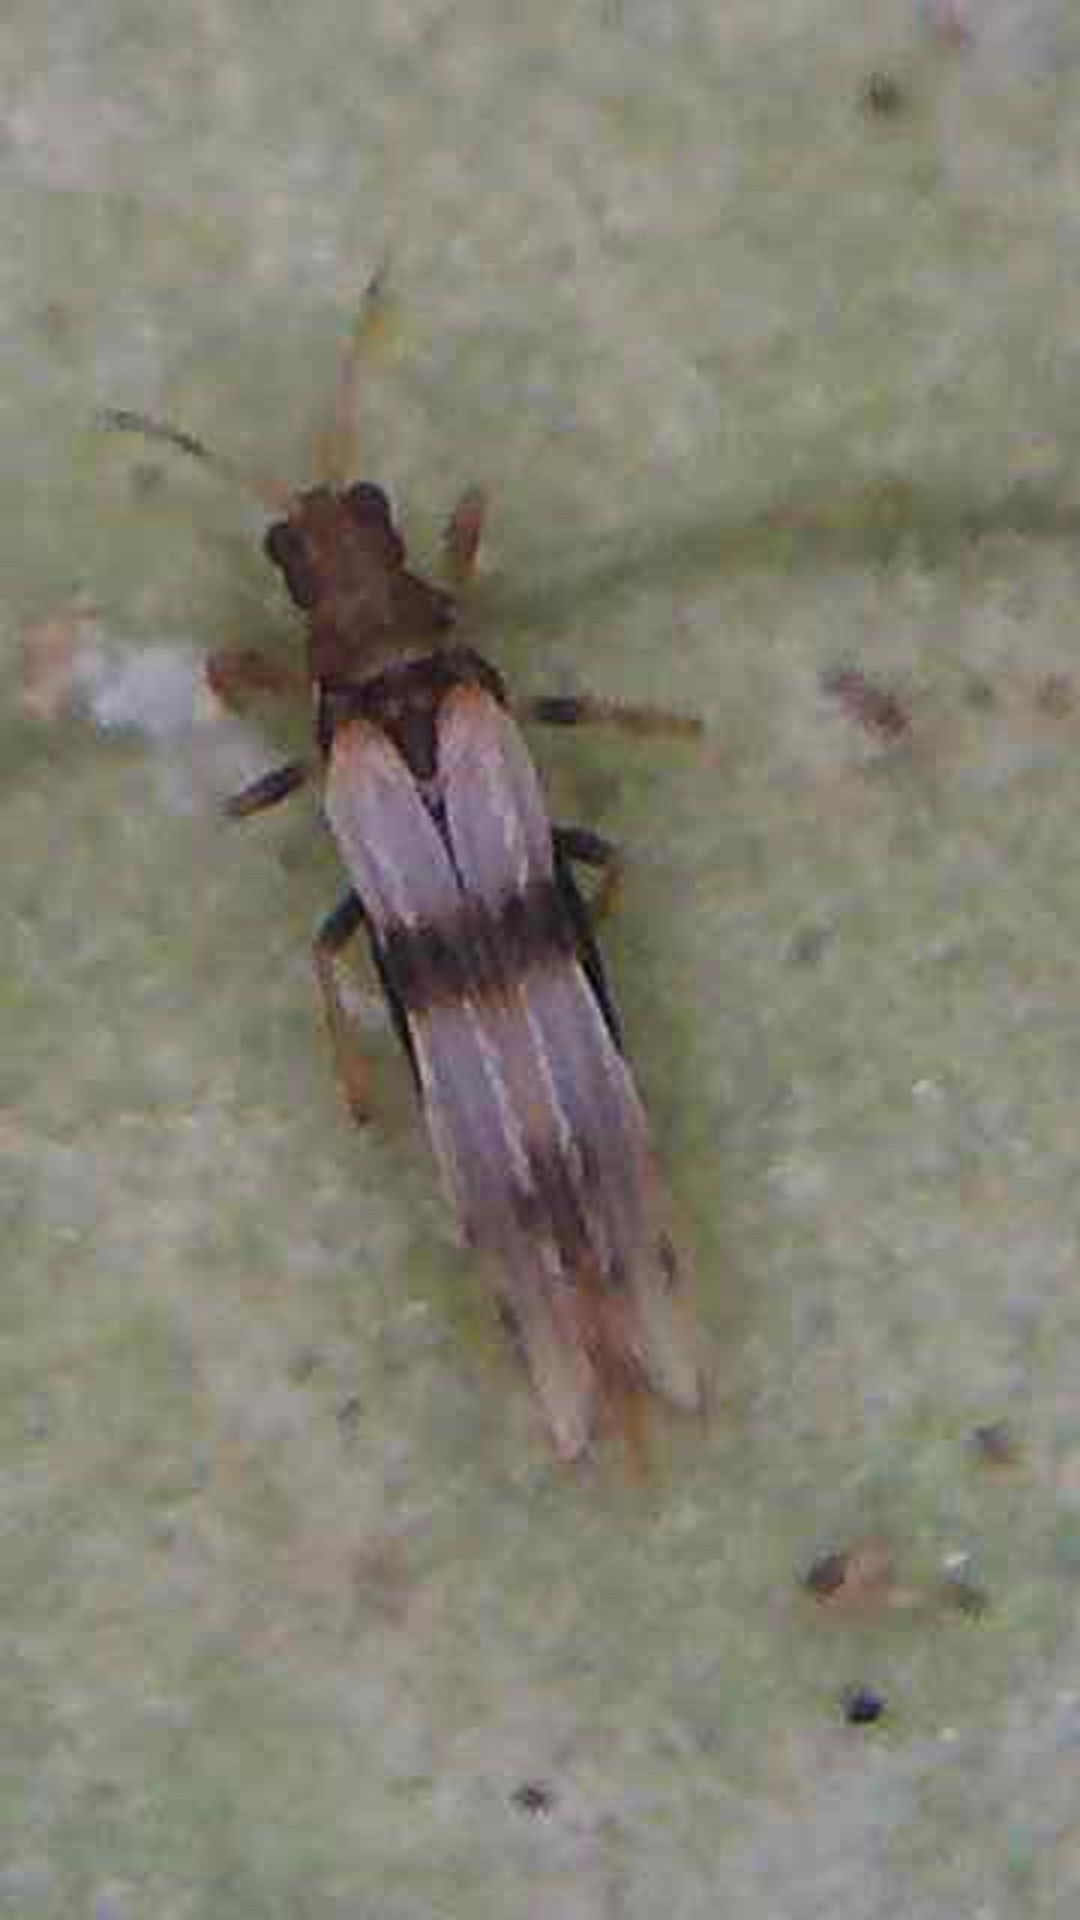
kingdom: Animalia
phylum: Arthropoda
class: Insecta
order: Thysanoptera
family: Thripidae
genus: Parthenothrips
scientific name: Parthenothrips dracaenae
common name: Thrips
